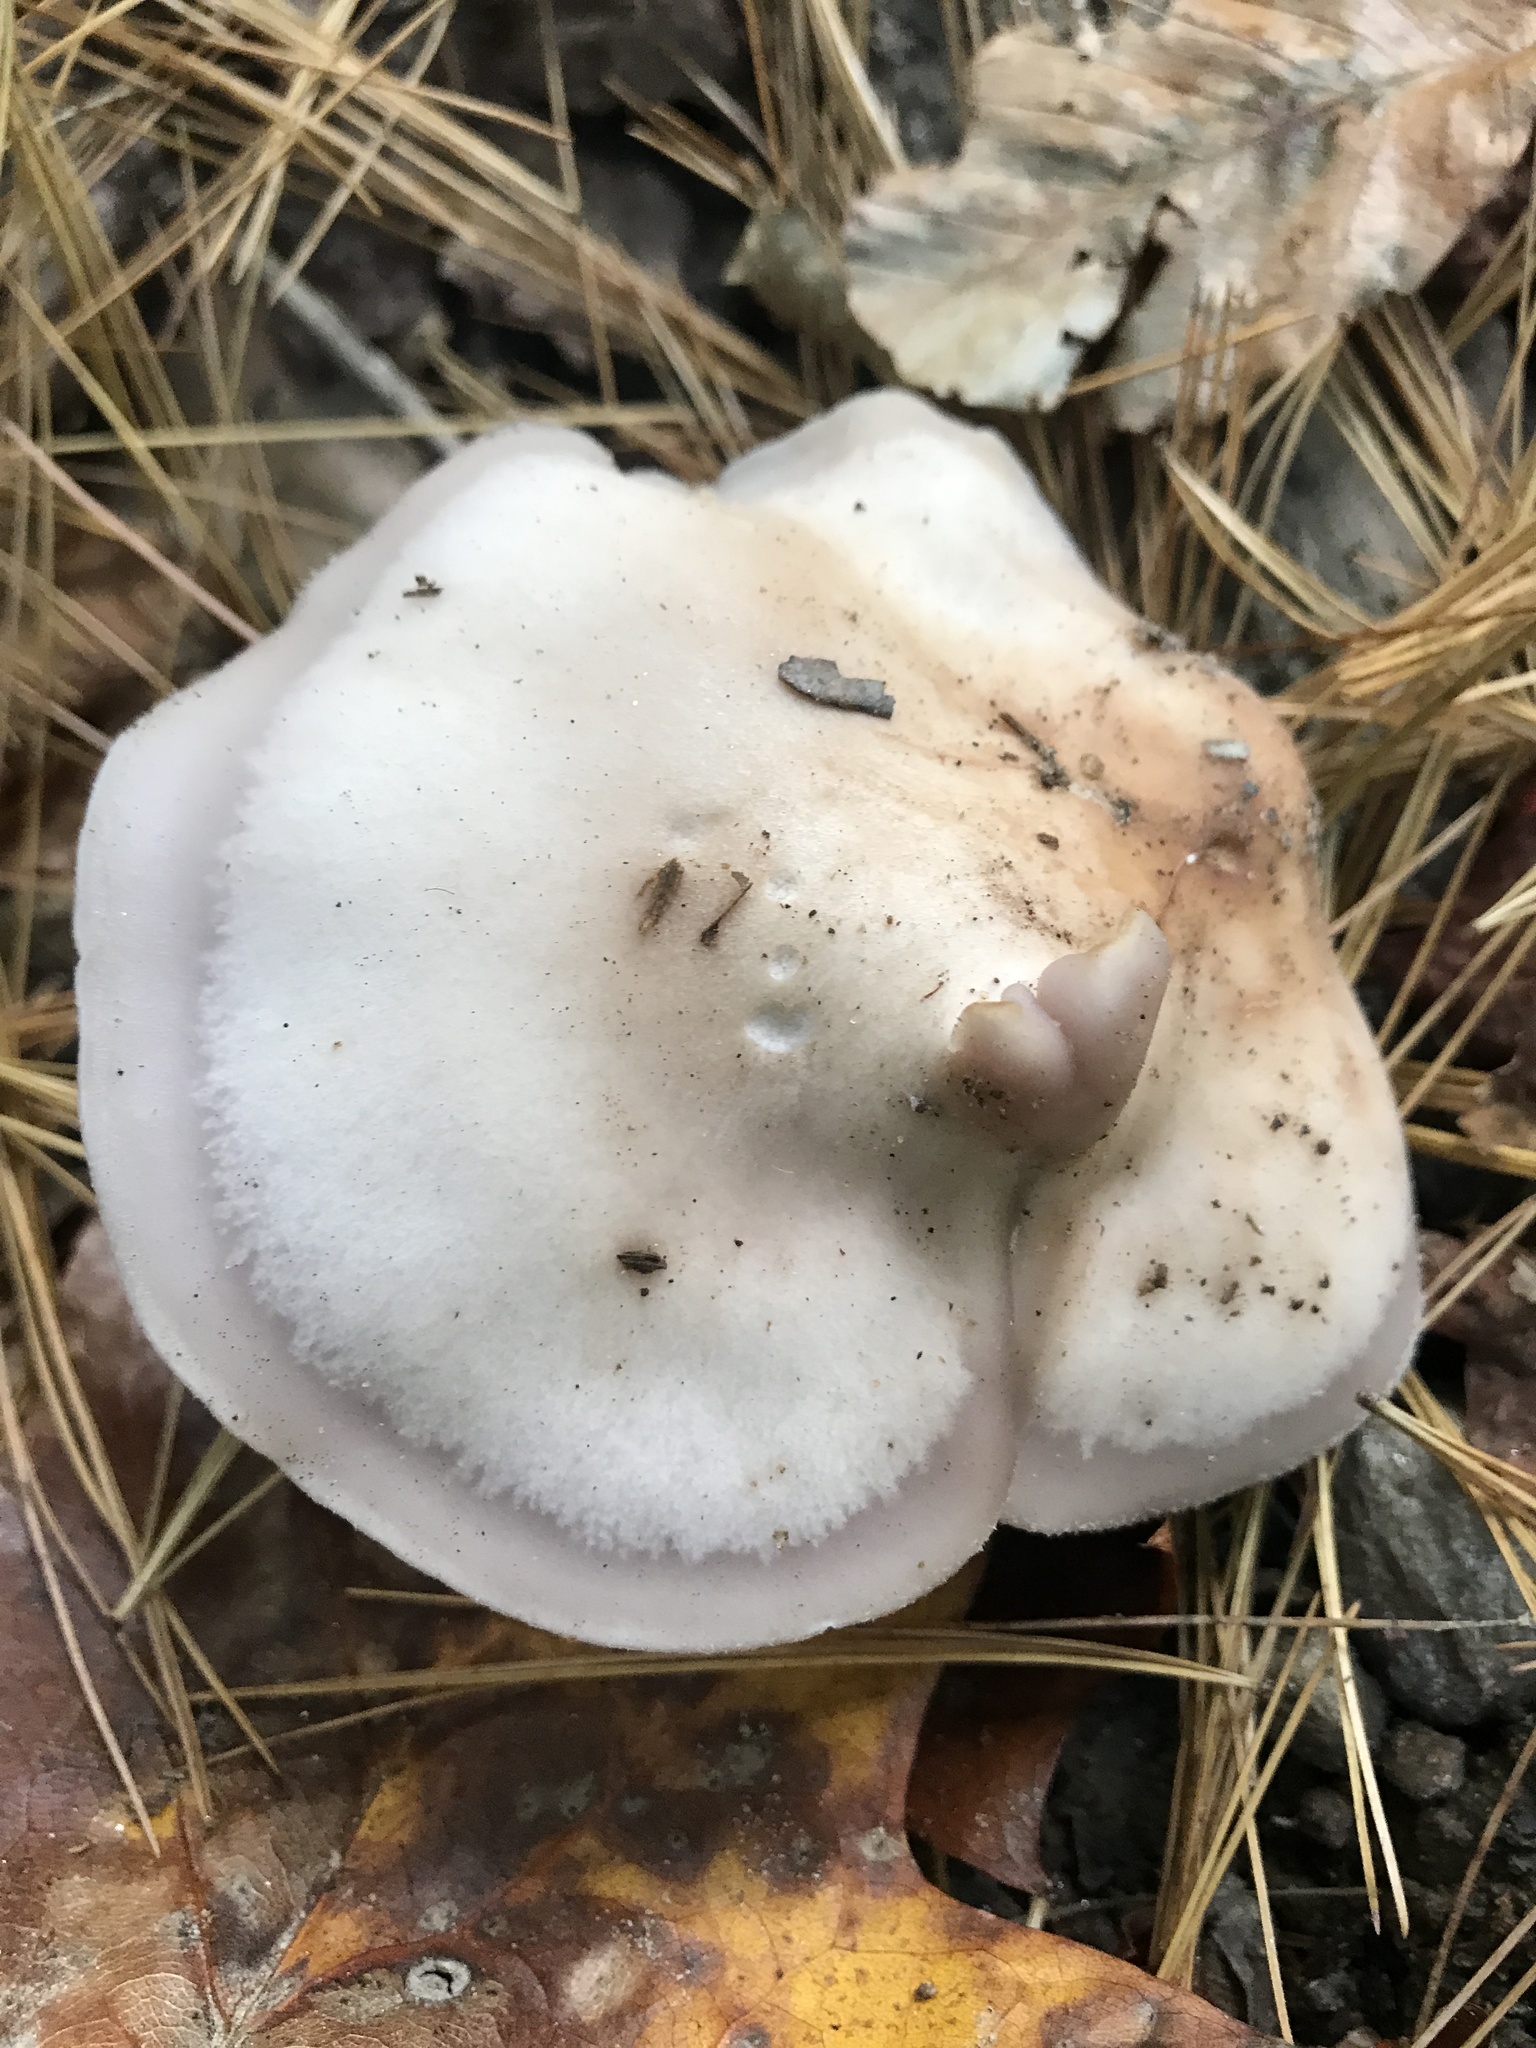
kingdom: Fungi
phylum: Basidiomycota
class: Agaricomycetes
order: Agaricales
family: Tricholomataceae
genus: Collybia
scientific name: Collybia
